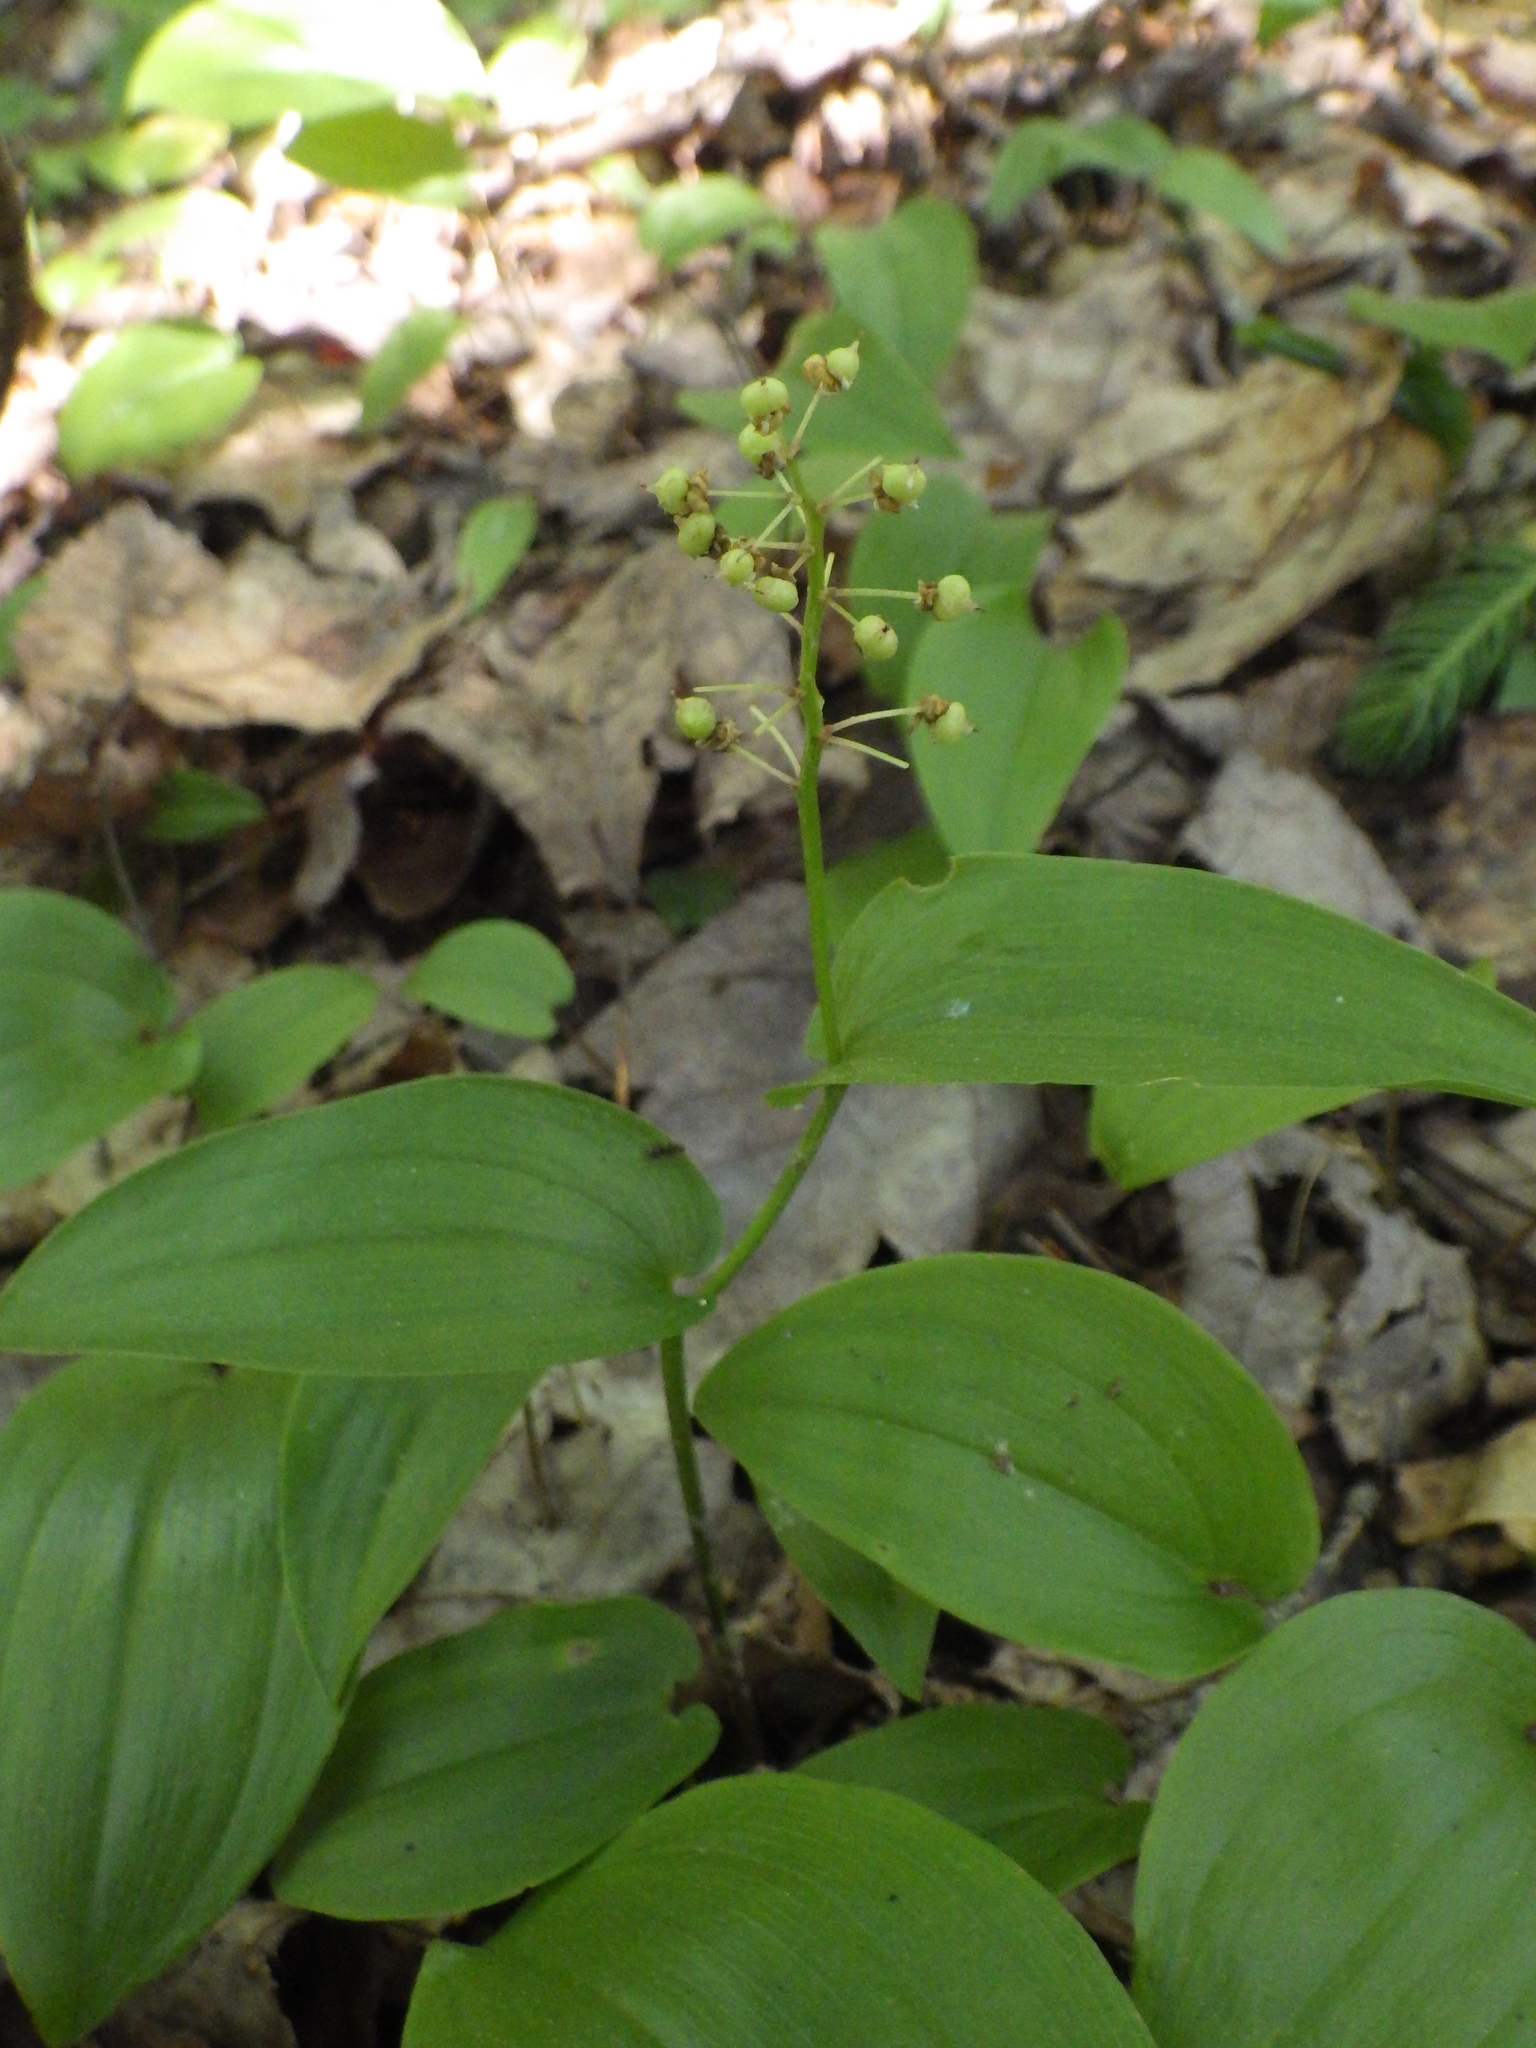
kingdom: Plantae
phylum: Tracheophyta
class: Liliopsida
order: Asparagales
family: Asparagaceae
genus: Maianthemum
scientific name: Maianthemum canadense
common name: False lily-of-the-valley
